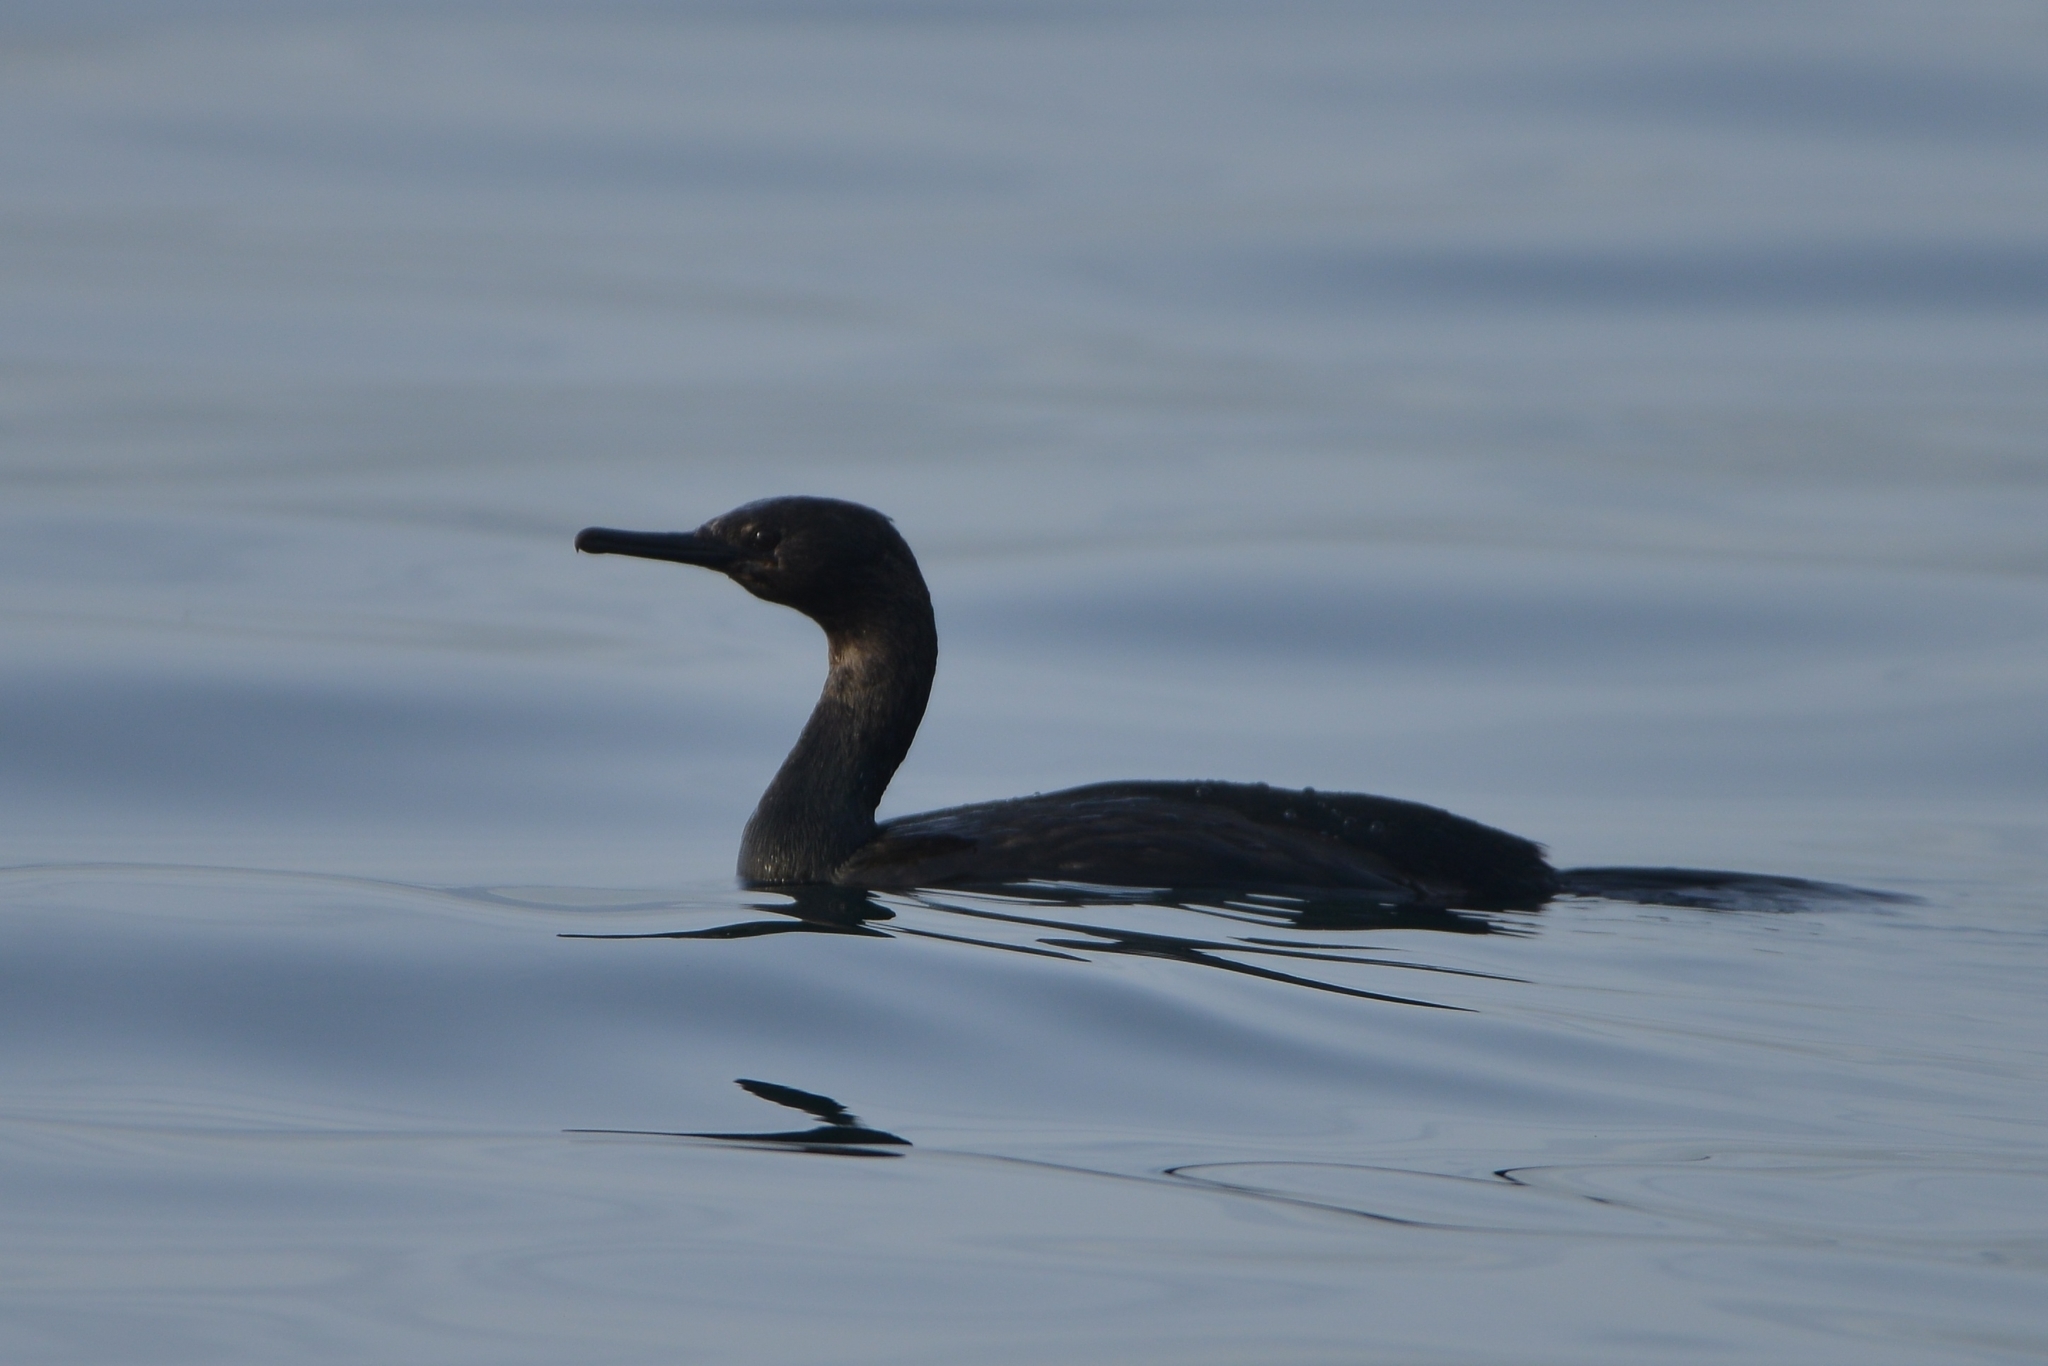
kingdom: Animalia
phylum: Chordata
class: Aves
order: Suliformes
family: Phalacrocoracidae
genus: Phalacrocorax
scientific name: Phalacrocorax pelagicus
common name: Pelagic cormorant
